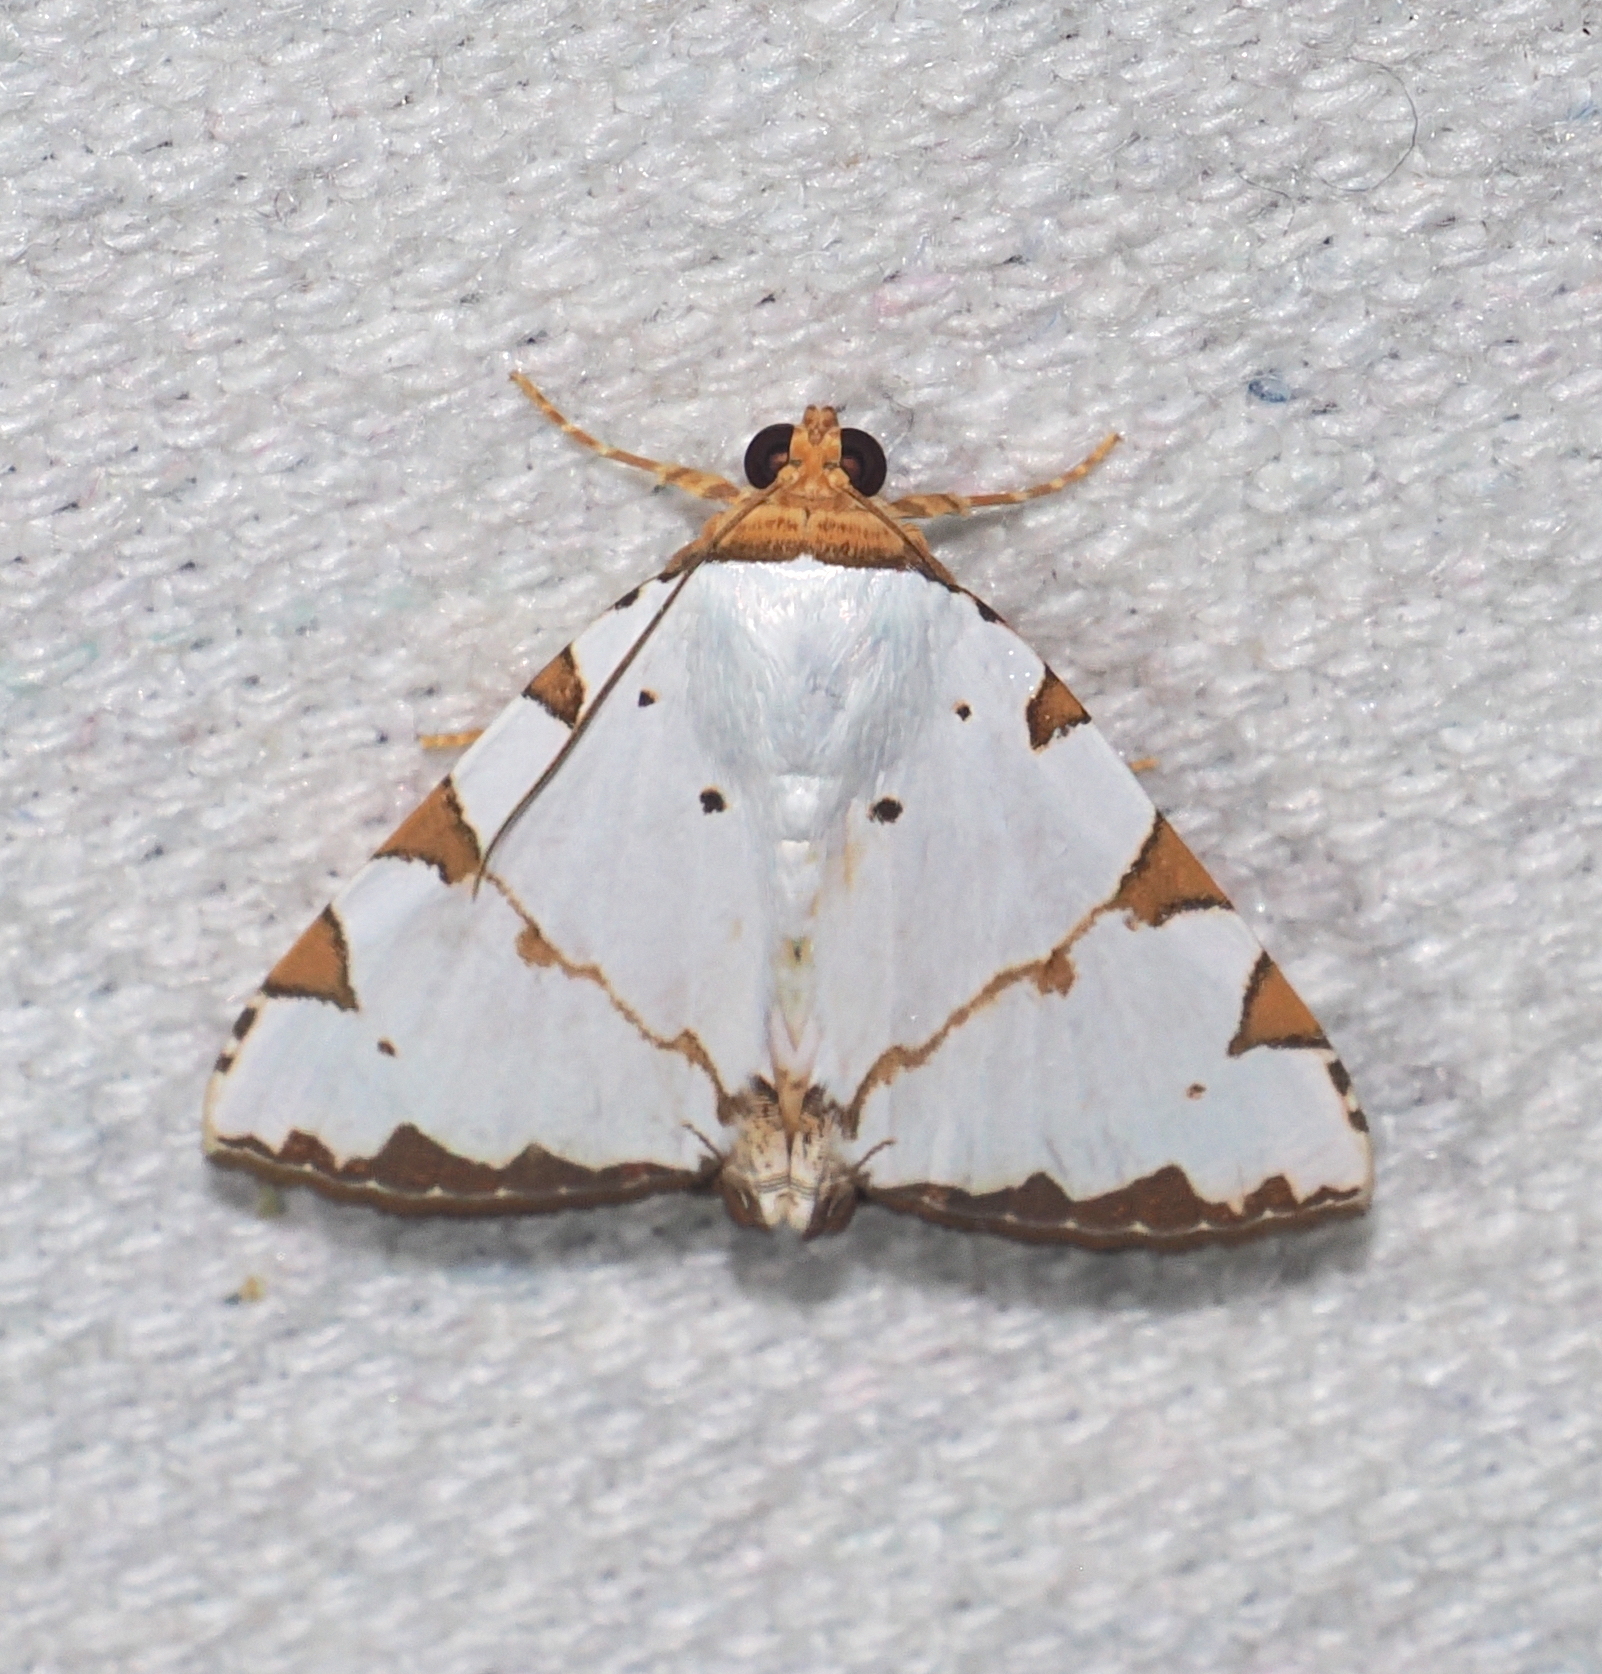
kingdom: Animalia
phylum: Arthropoda
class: Insecta
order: Lepidoptera
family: Erebidae
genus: Eulepidotis
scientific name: Eulepidotis testaceiceps
